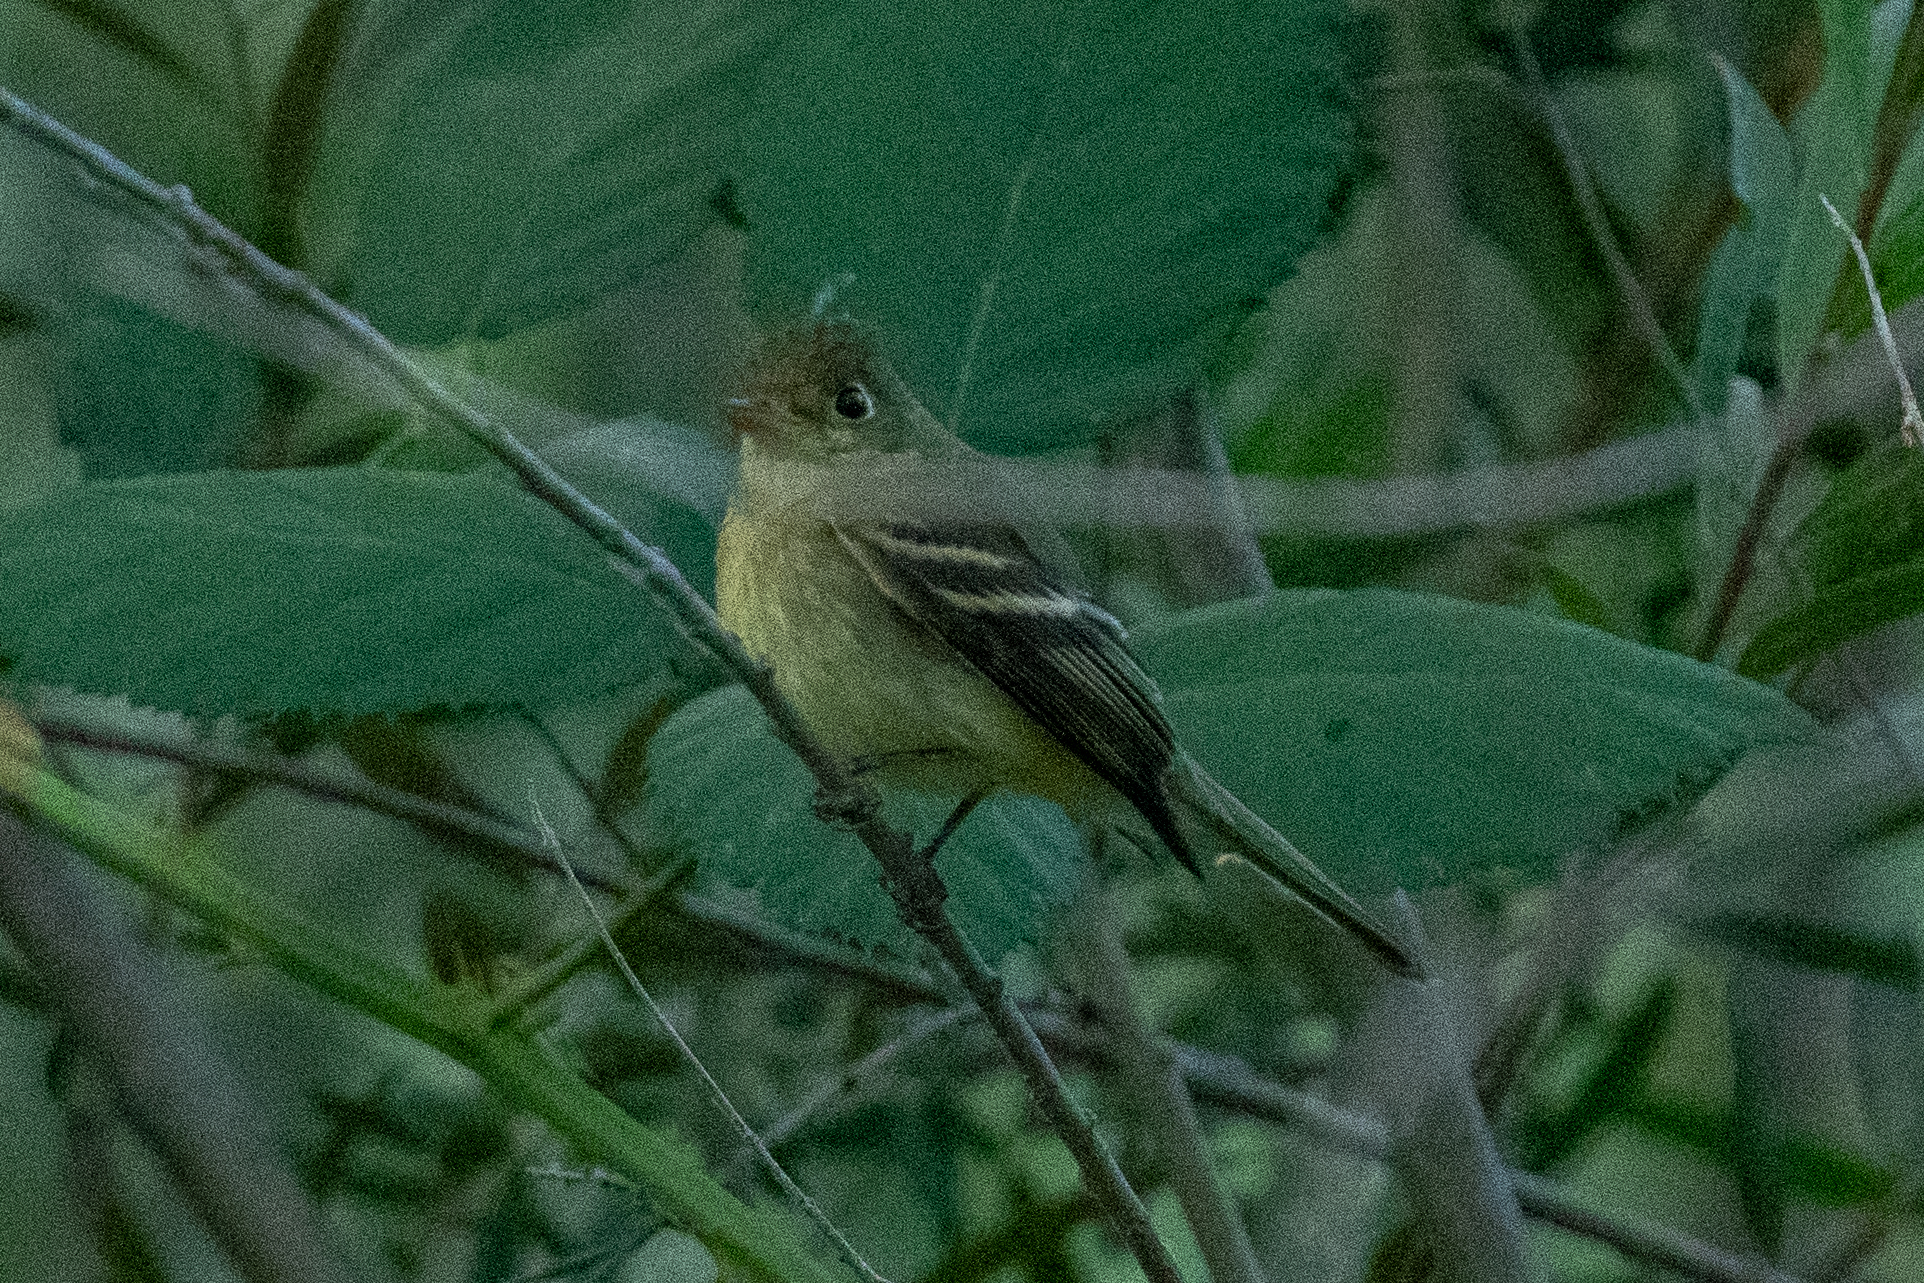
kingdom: Animalia
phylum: Chordata
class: Aves
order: Passeriformes
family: Tyrannidae
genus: Empidonax
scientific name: Empidonax difficilis
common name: Pacific-slope flycatcher
